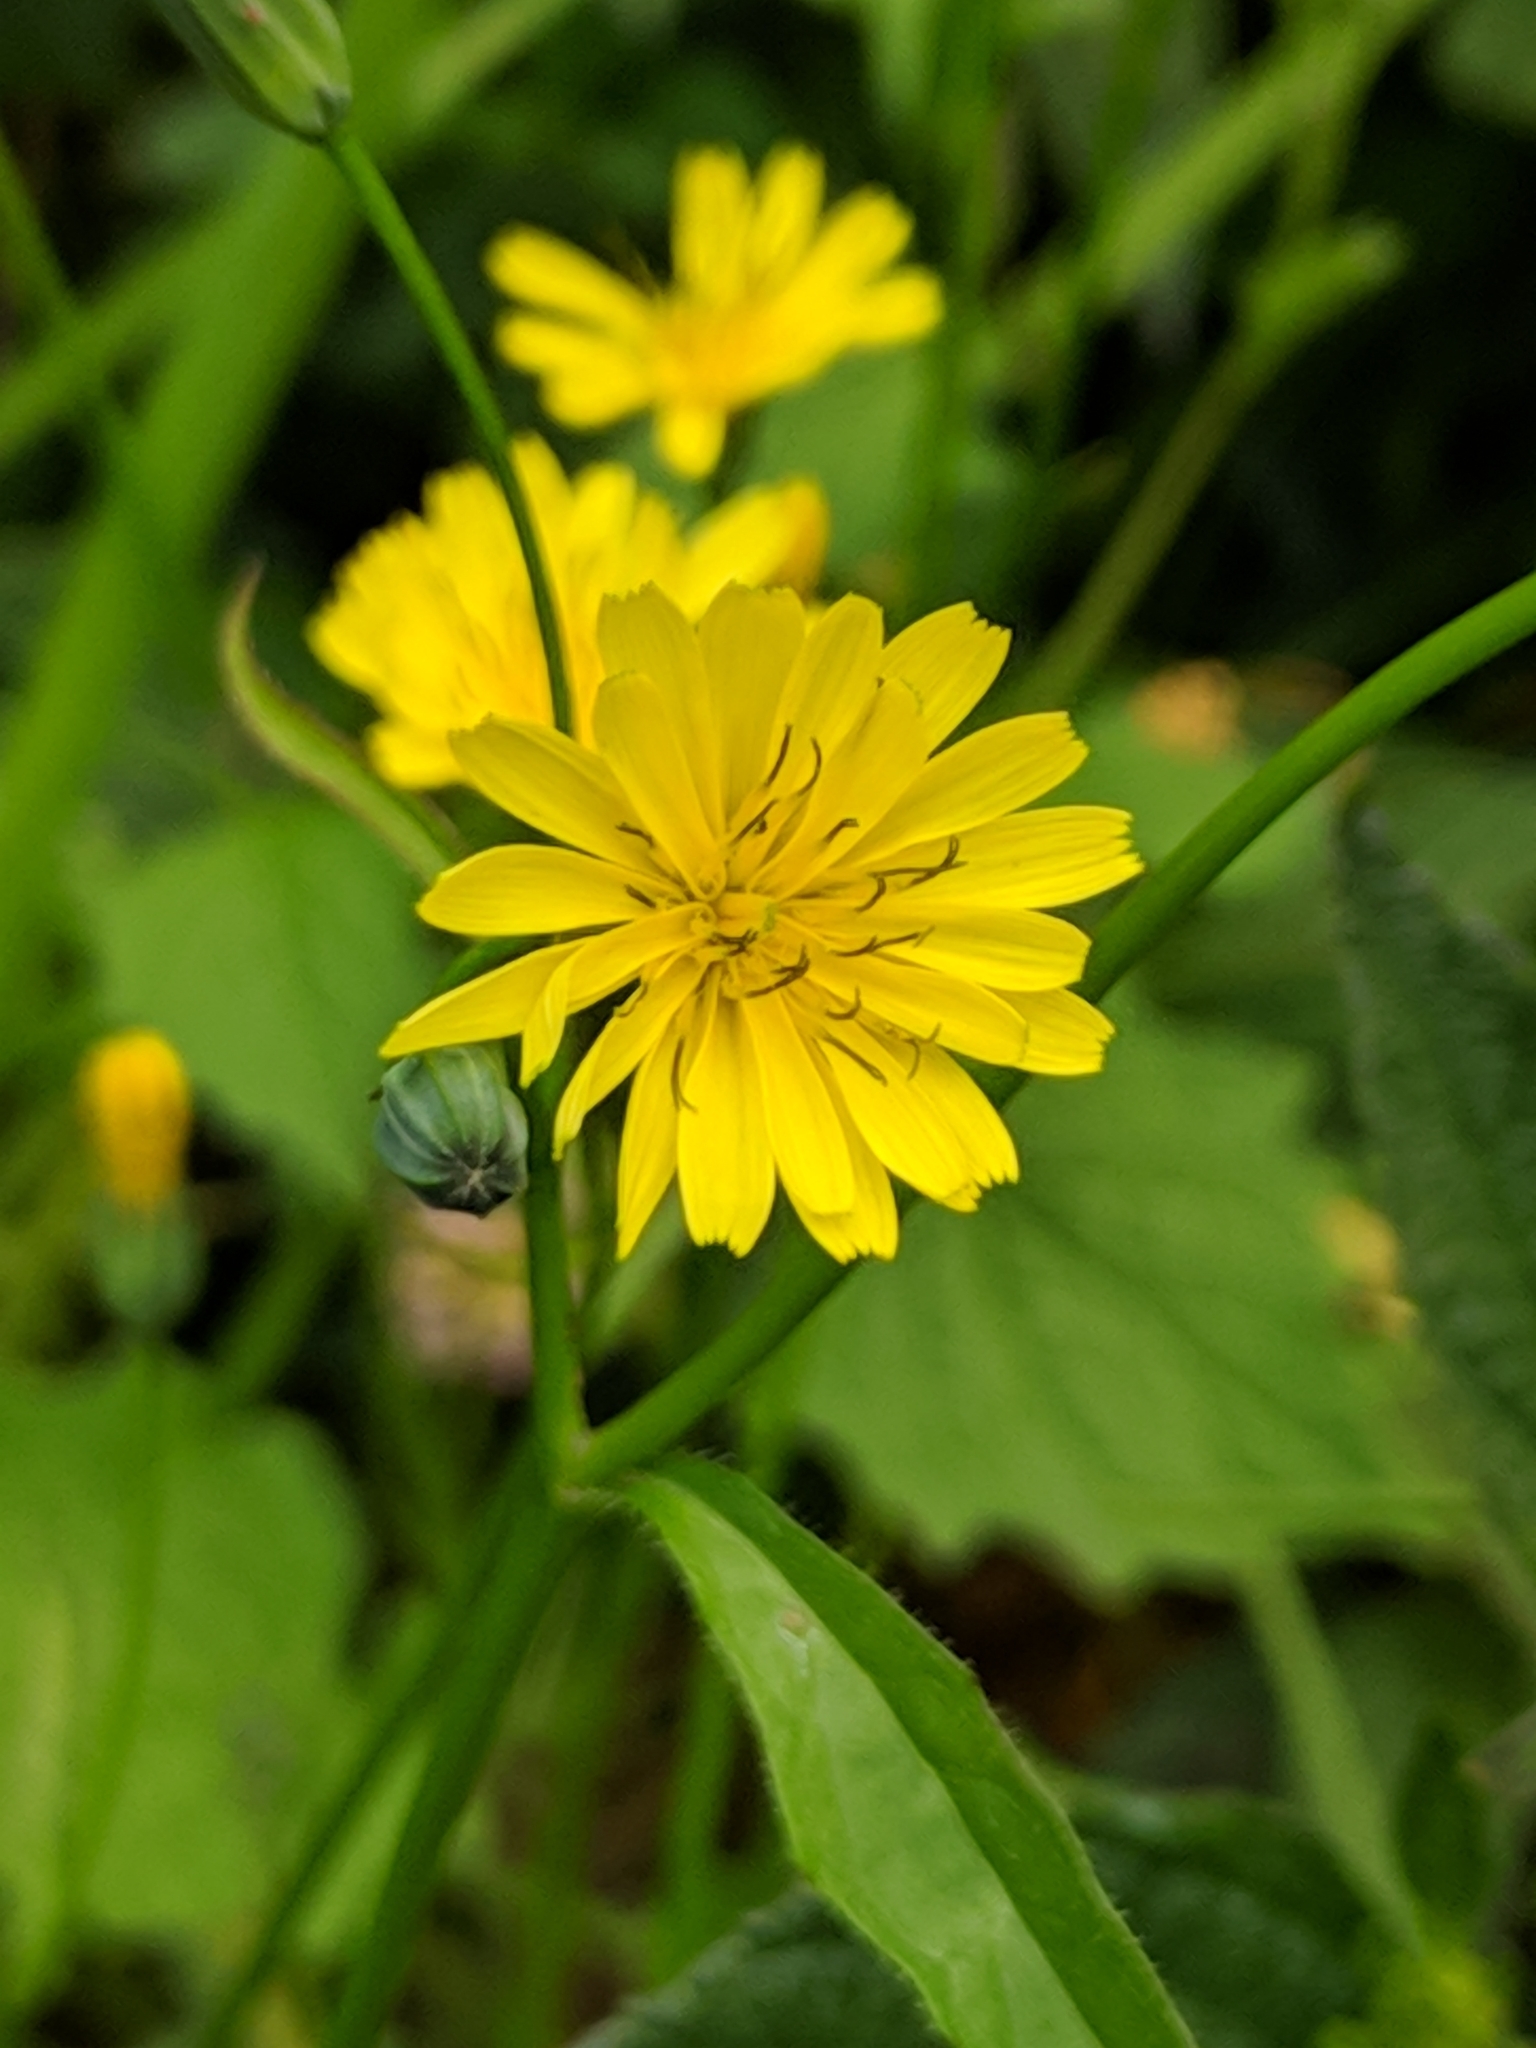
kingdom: Plantae
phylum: Tracheophyta
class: Magnoliopsida
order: Asterales
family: Asteraceae
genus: Lapsana
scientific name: Lapsana communis
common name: Nipplewort
